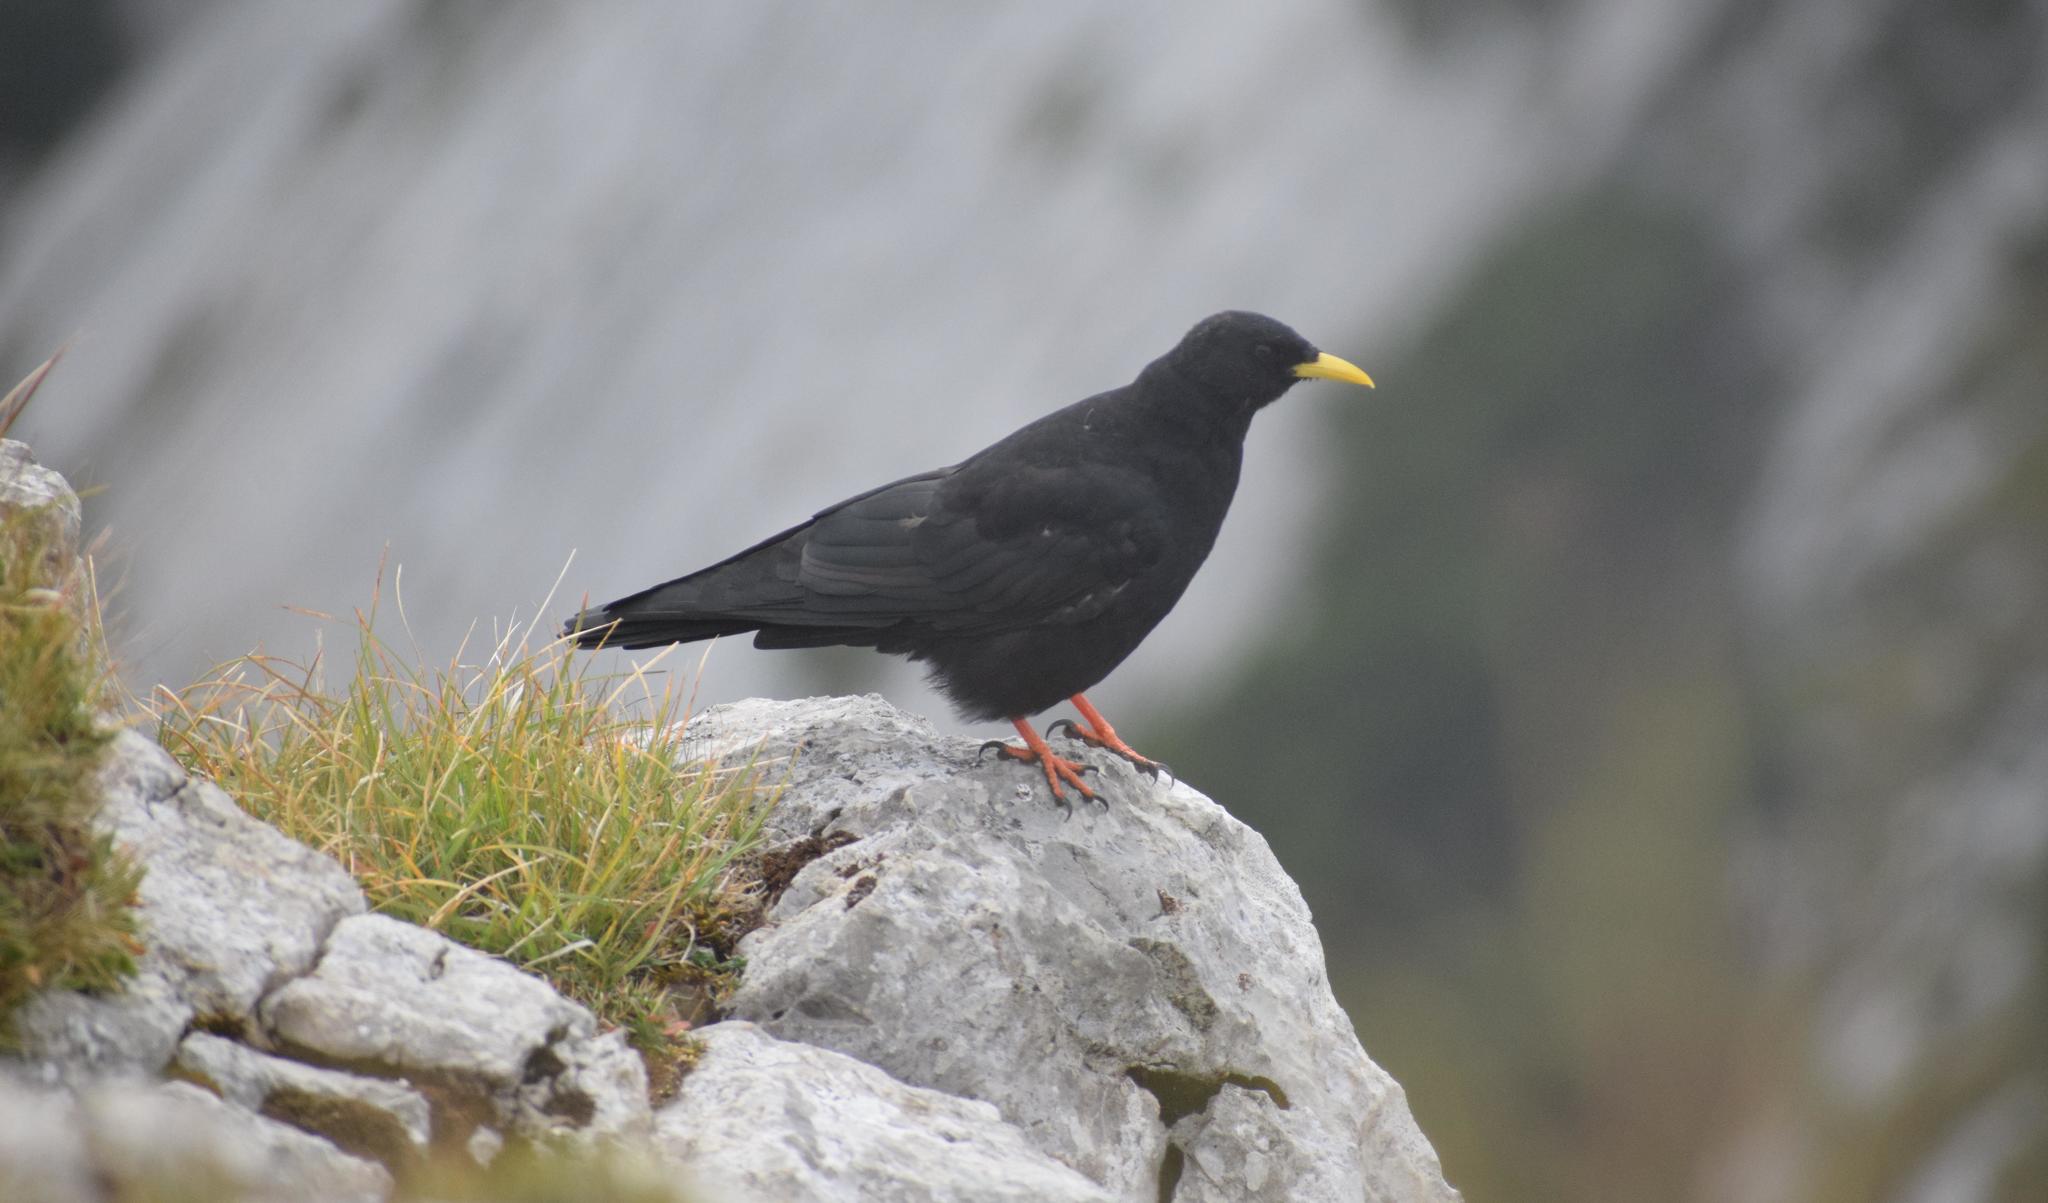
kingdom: Animalia
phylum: Chordata
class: Aves
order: Passeriformes
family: Corvidae
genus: Pyrrhocorax
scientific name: Pyrrhocorax graculus
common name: Alpine chough
